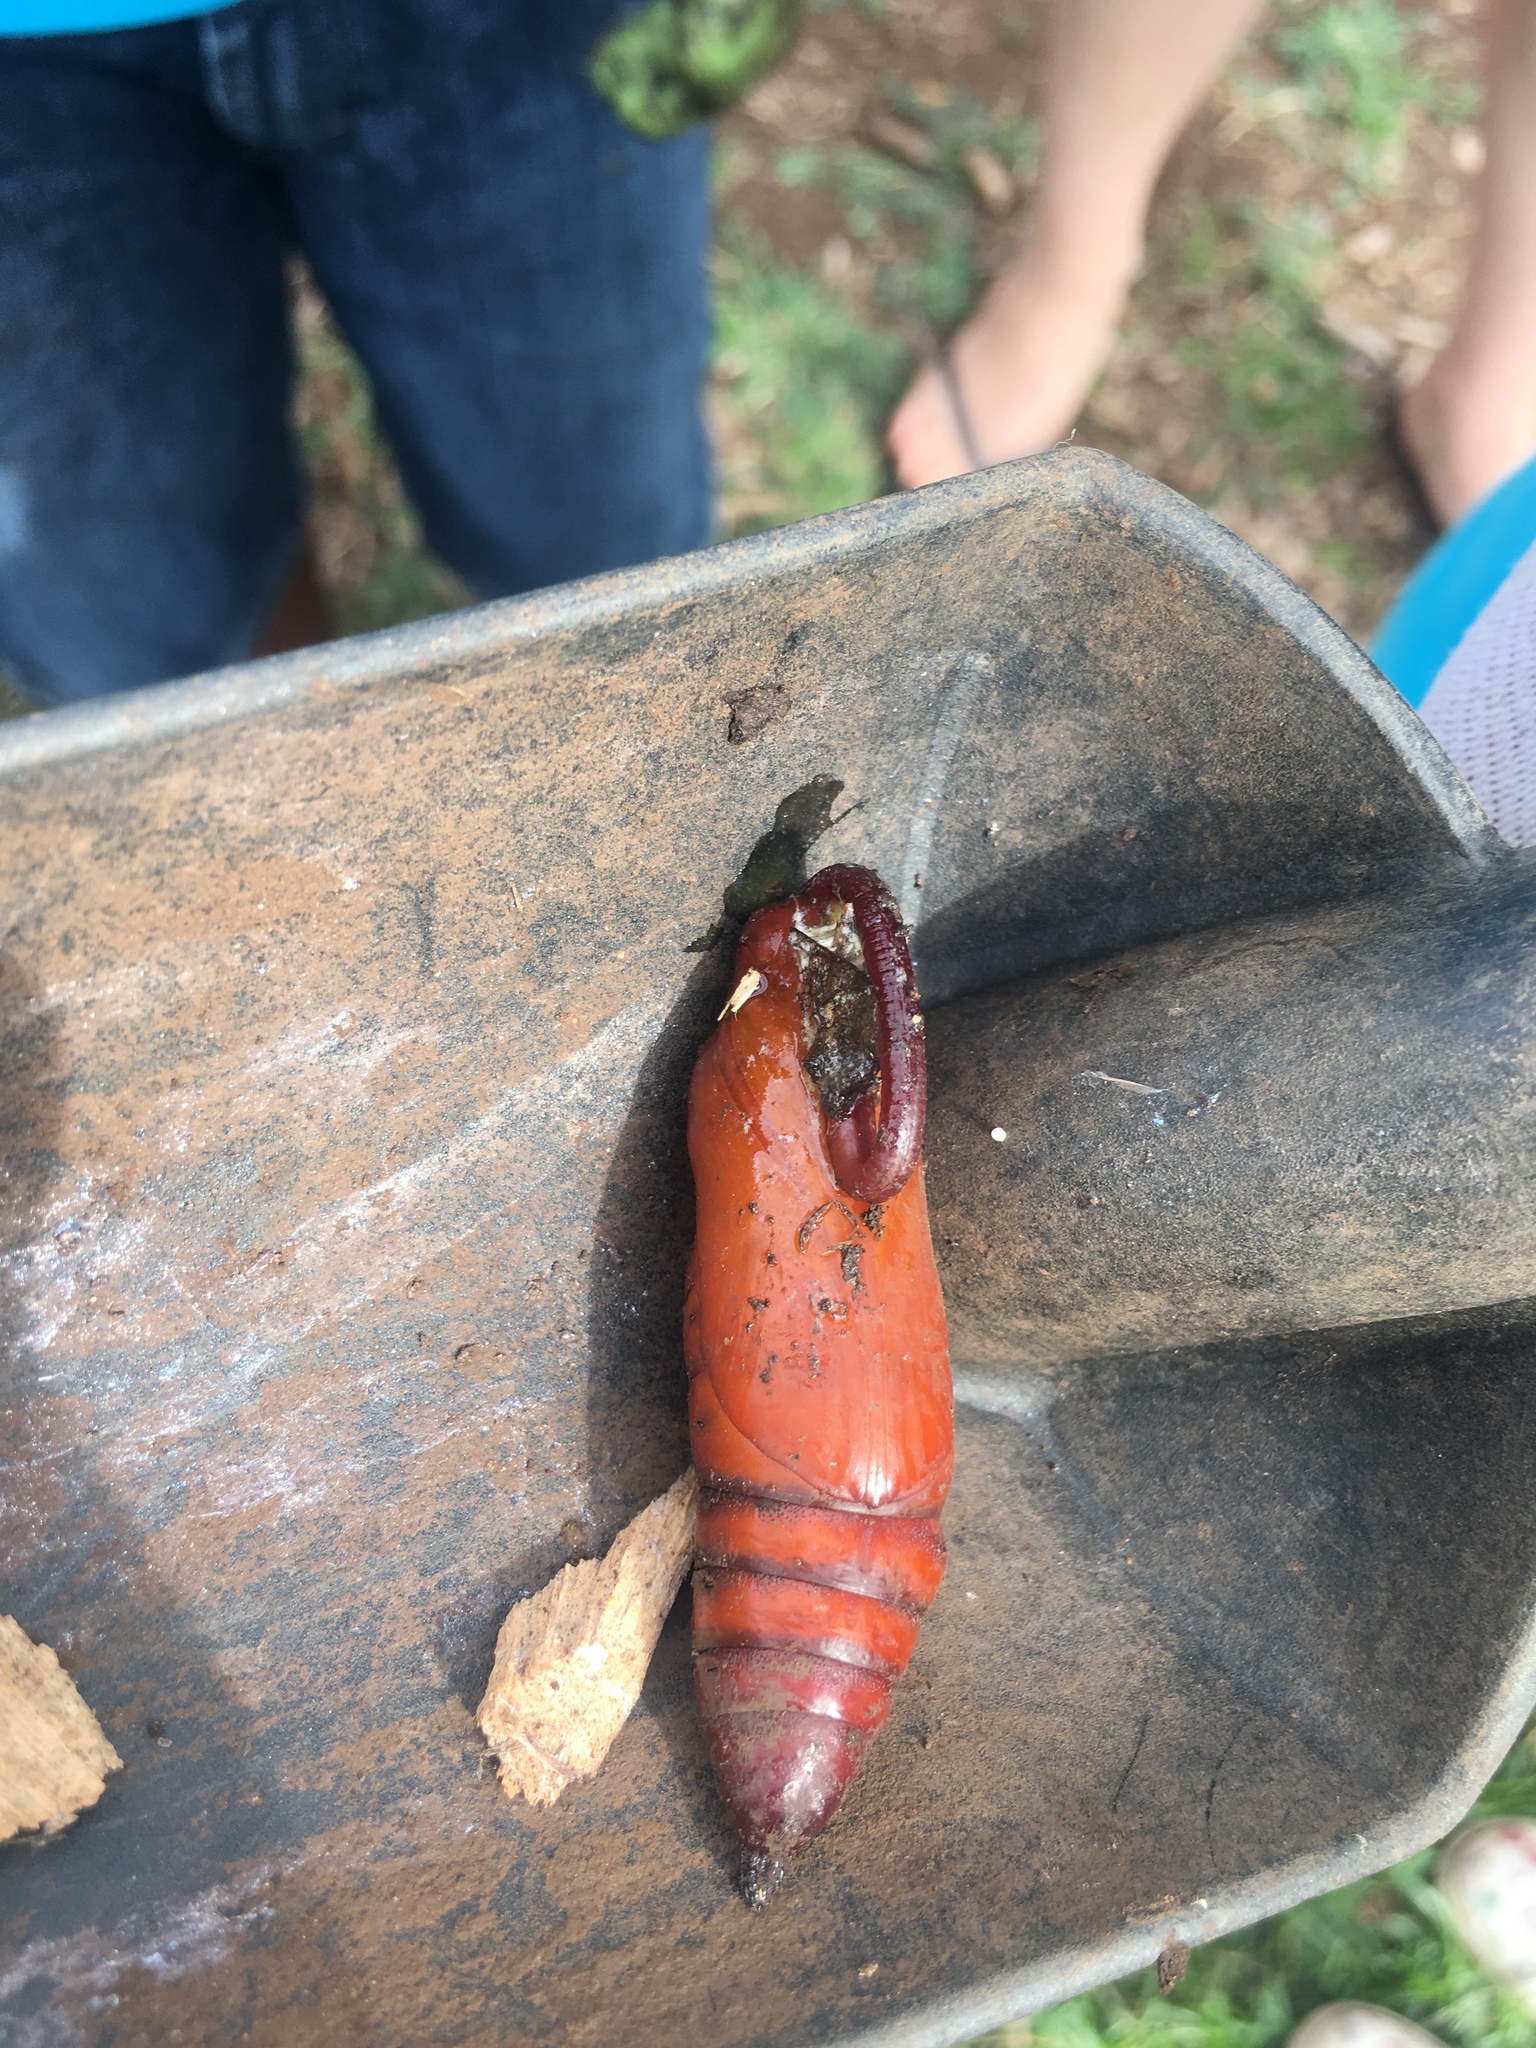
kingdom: Animalia
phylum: Arthropoda
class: Insecta
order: Lepidoptera
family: Sphingidae
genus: Agrius
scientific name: Agrius cingulata
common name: Pink-spotted hawkmoth
